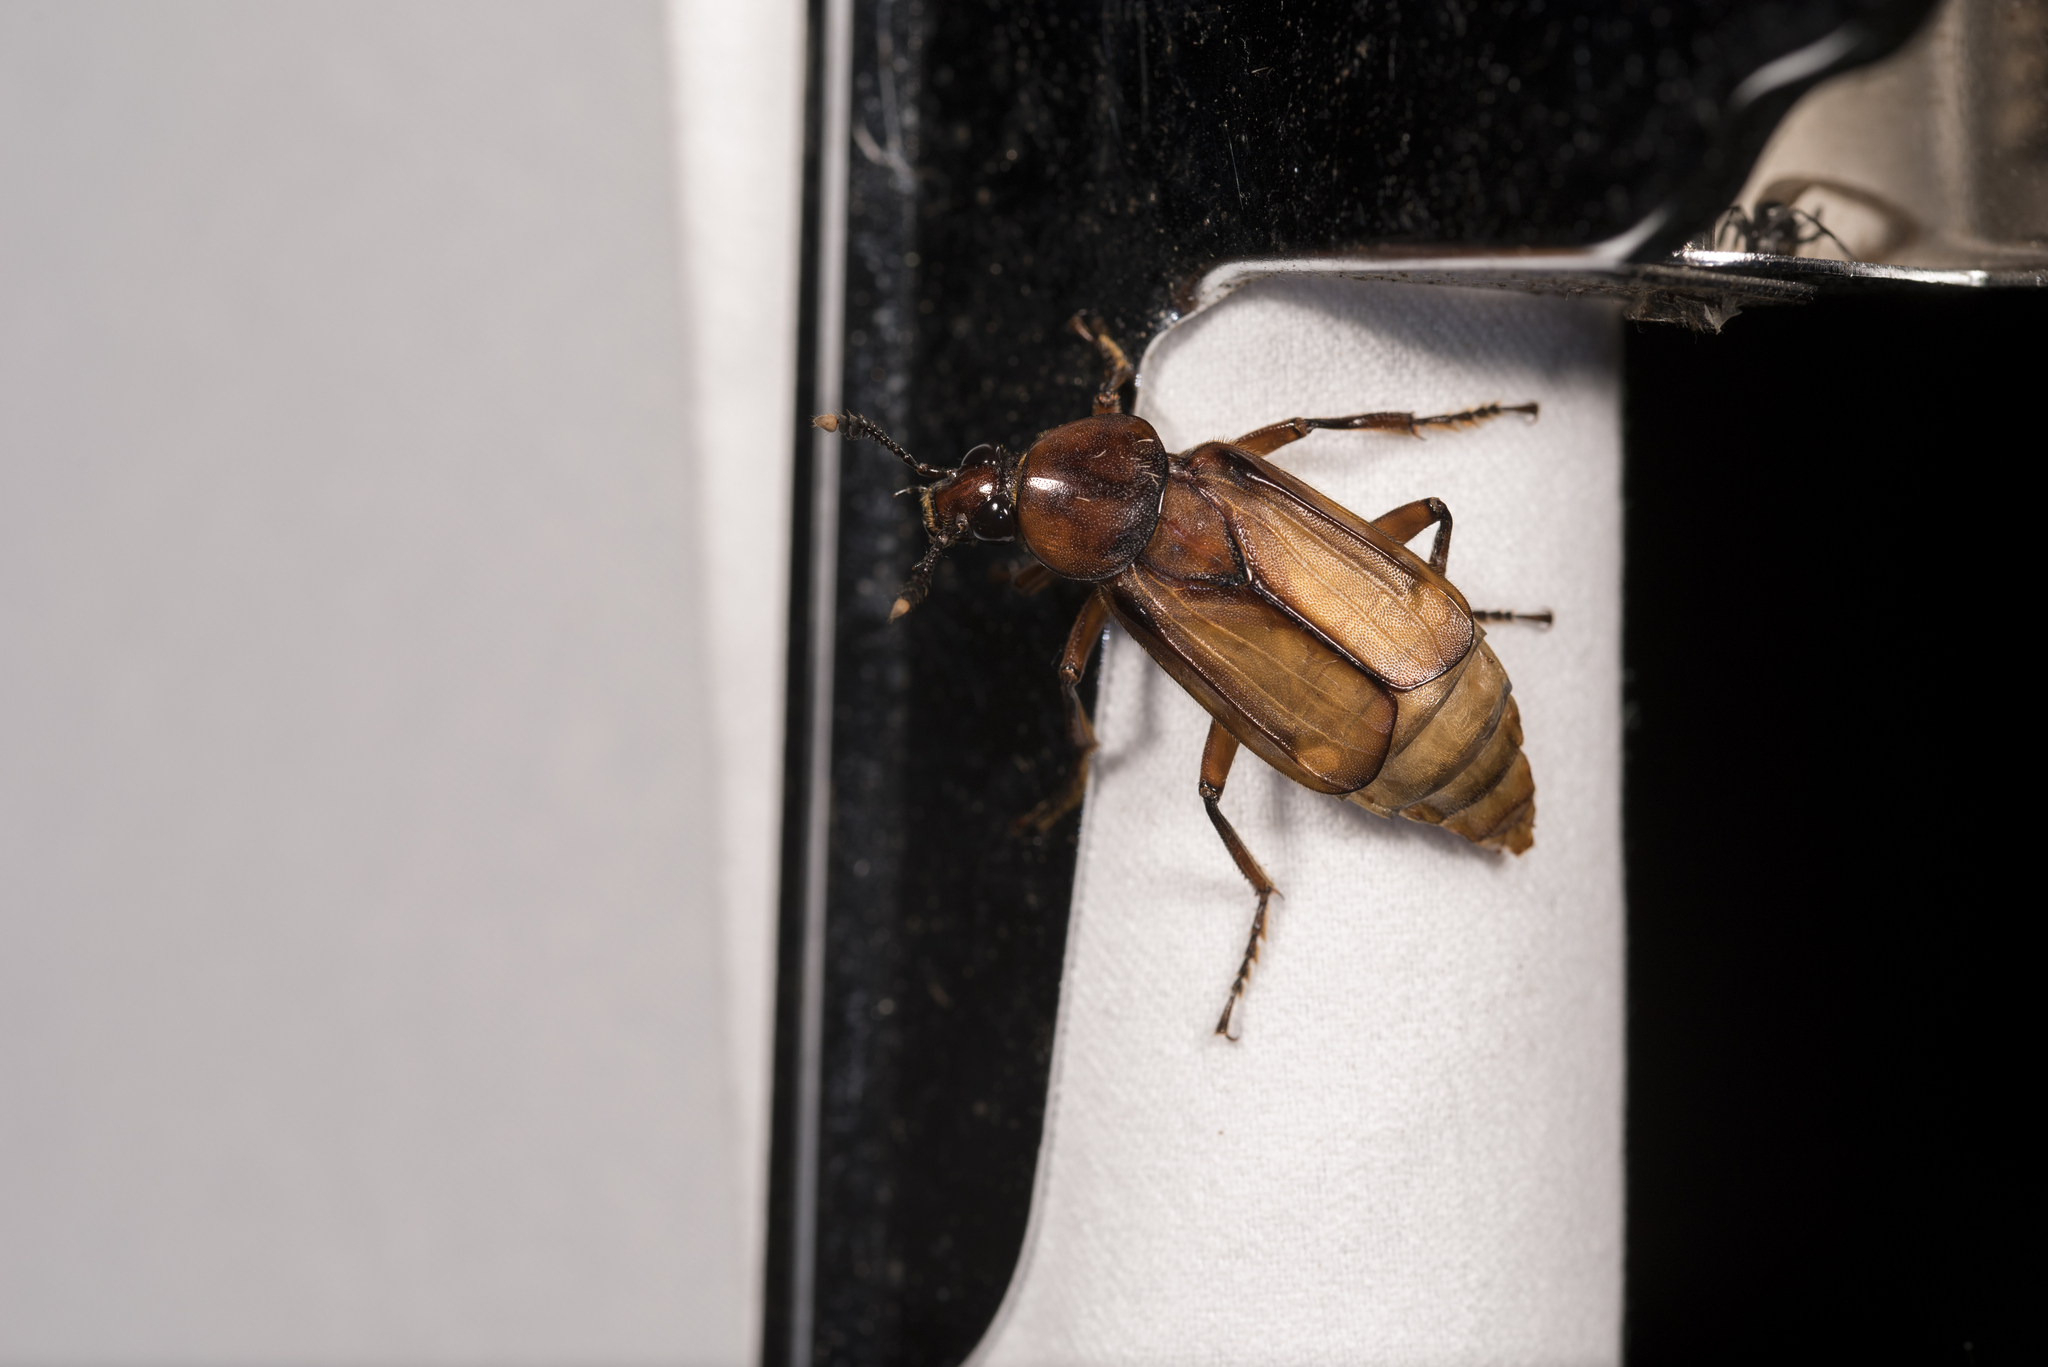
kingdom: Animalia
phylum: Arthropoda
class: Insecta
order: Coleoptera
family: Staphylinidae
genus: Diamesus
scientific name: Diamesus bimaculatus
